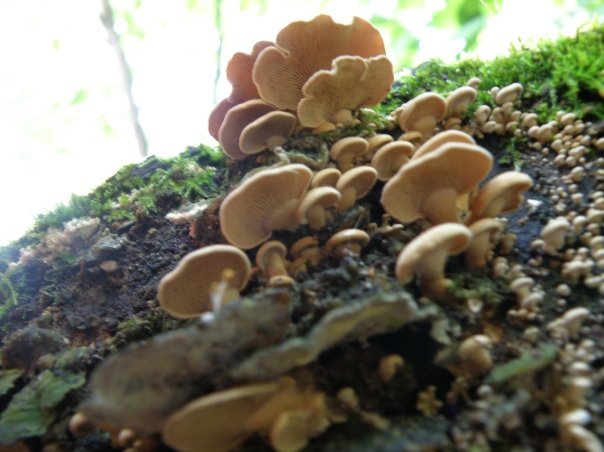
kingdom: Fungi
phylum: Basidiomycota
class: Agaricomycetes
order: Agaricales
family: Mycenaceae
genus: Panellus
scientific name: Panellus stipticus
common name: Bitter oysterling
